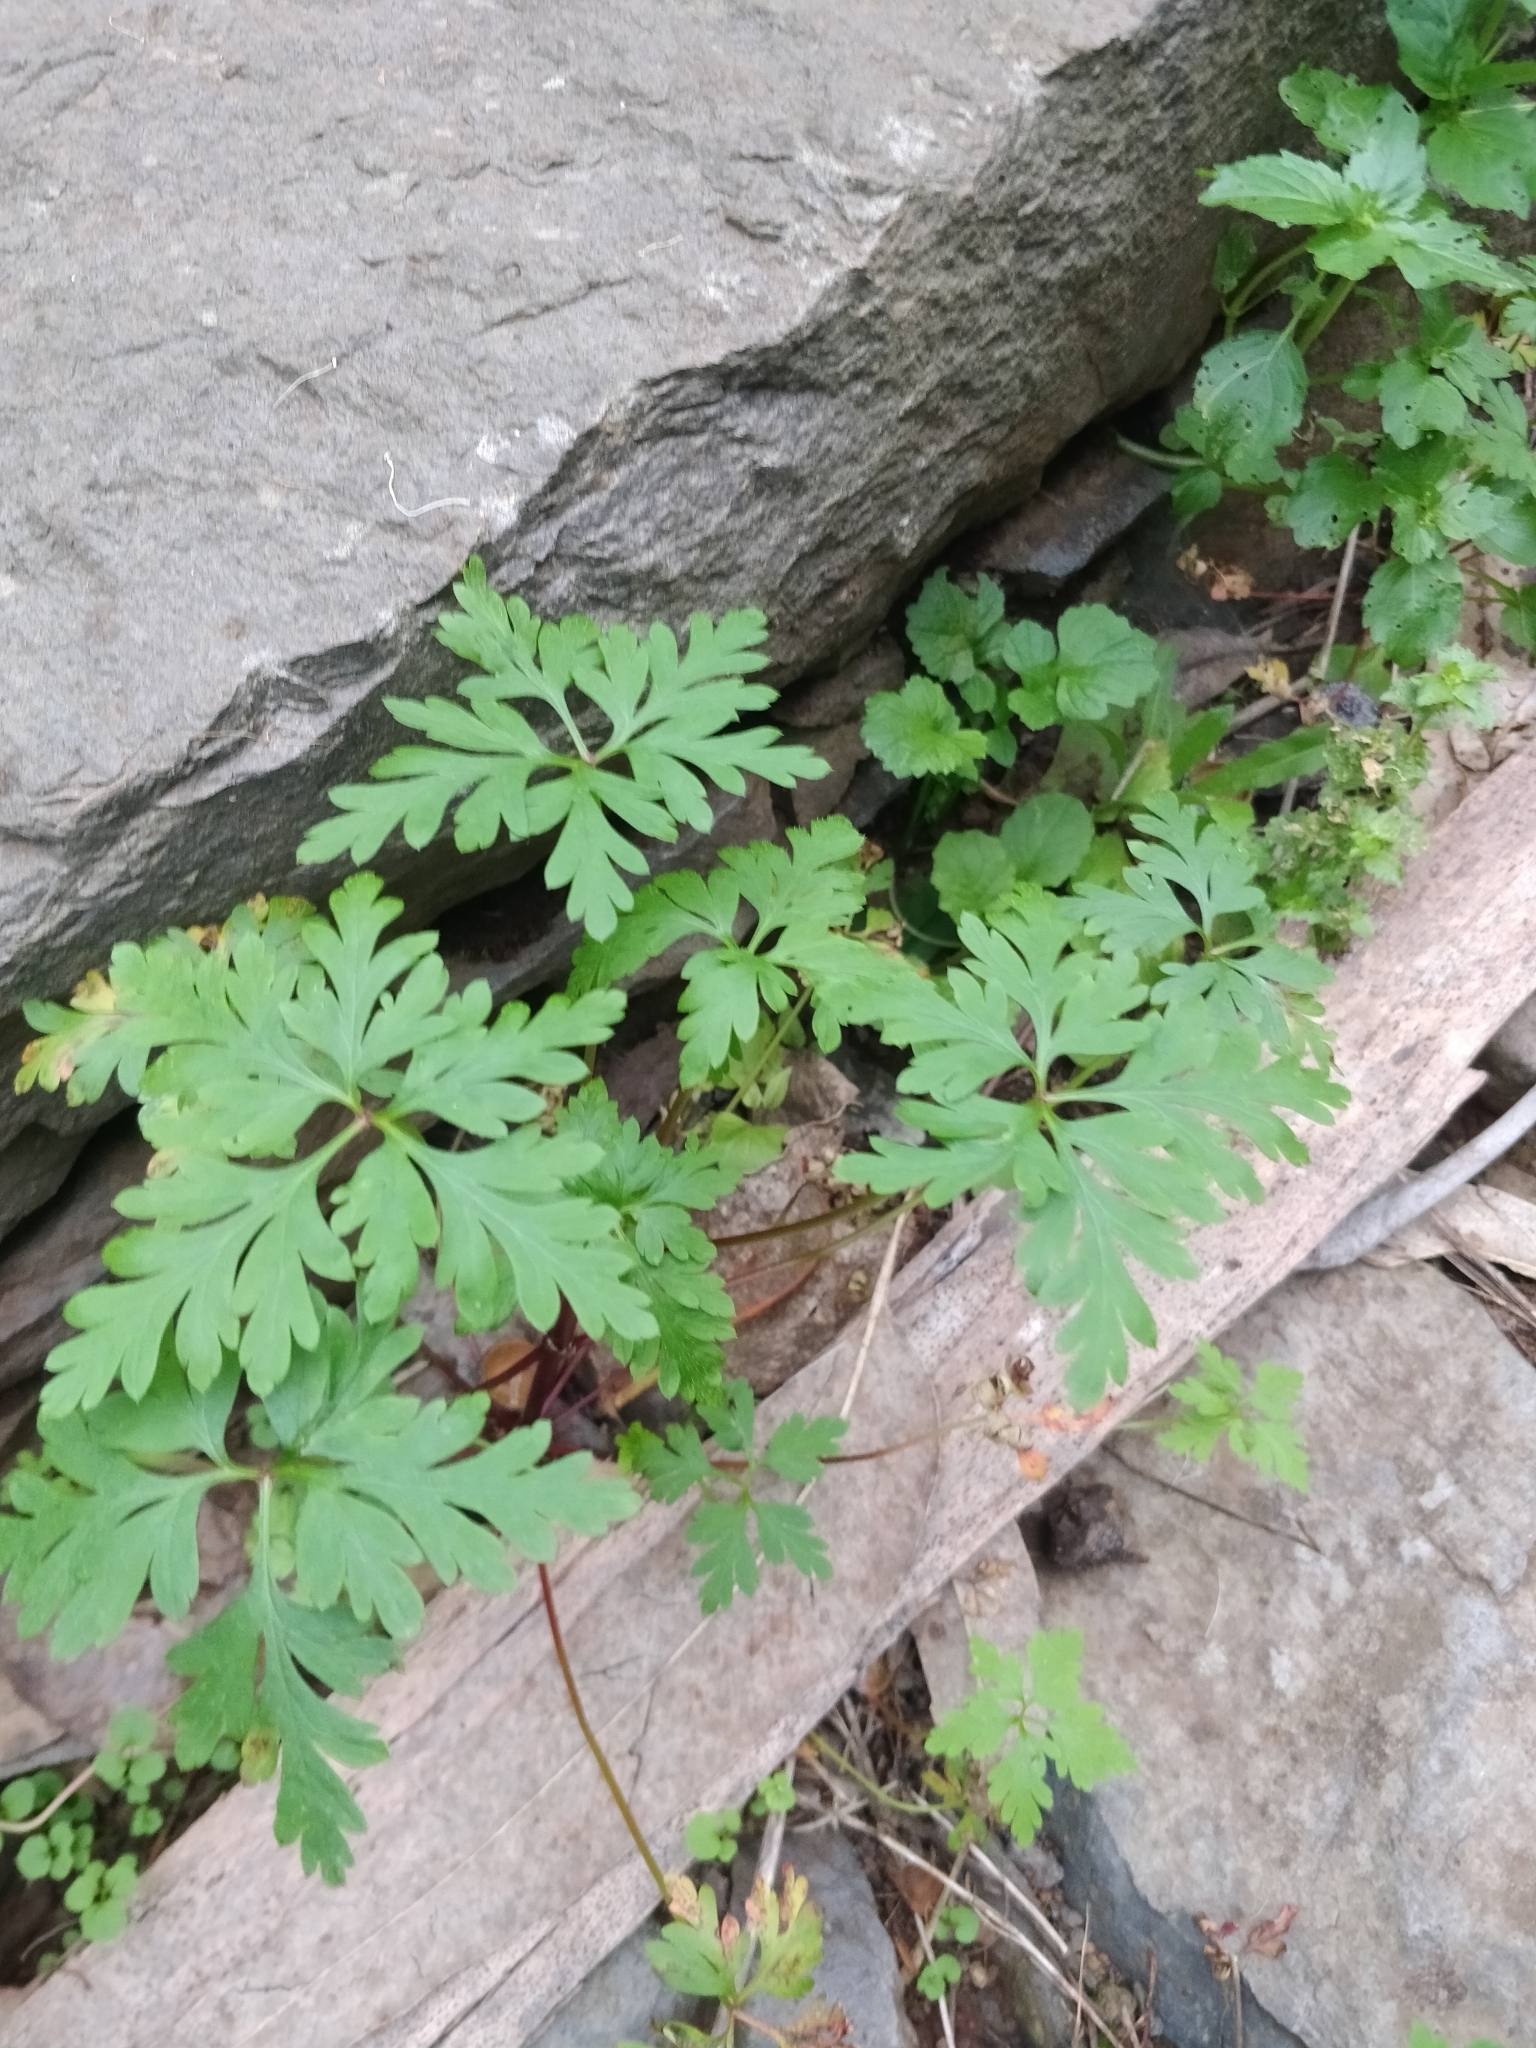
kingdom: Plantae
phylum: Tracheophyta
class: Magnoliopsida
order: Geraniales
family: Geraniaceae
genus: Geranium
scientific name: Geranium purpureum
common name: Little-robin
